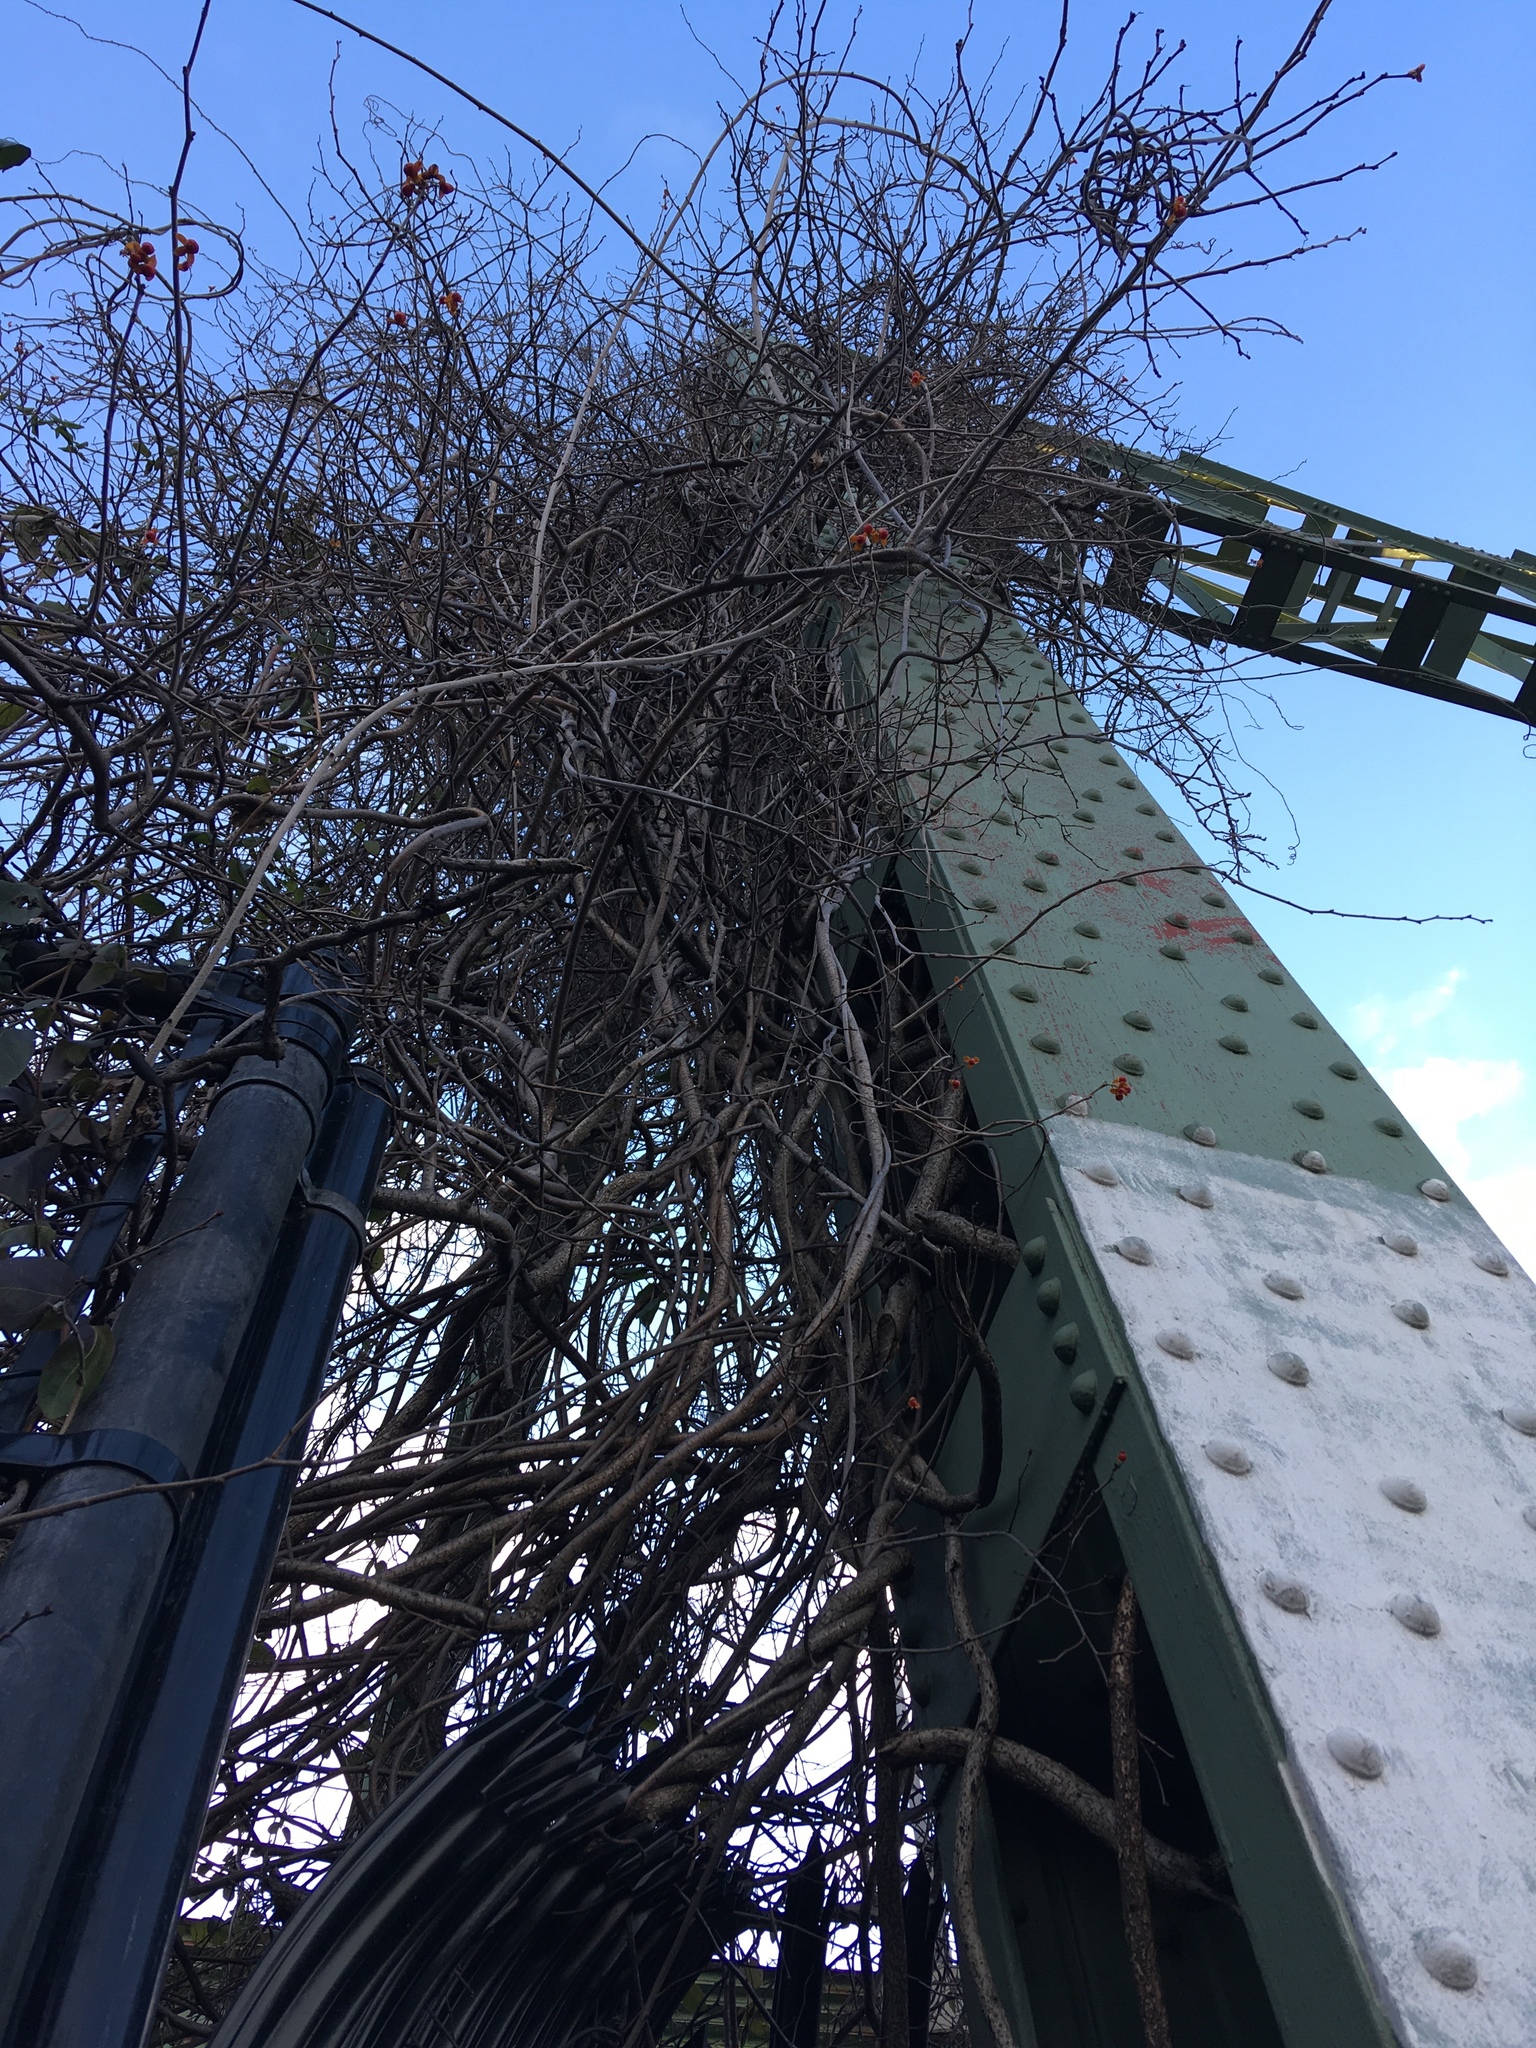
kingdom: Plantae
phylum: Tracheophyta
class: Magnoliopsida
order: Celastrales
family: Celastraceae
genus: Celastrus
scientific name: Celastrus orbiculatus
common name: Oriental bittersweet
